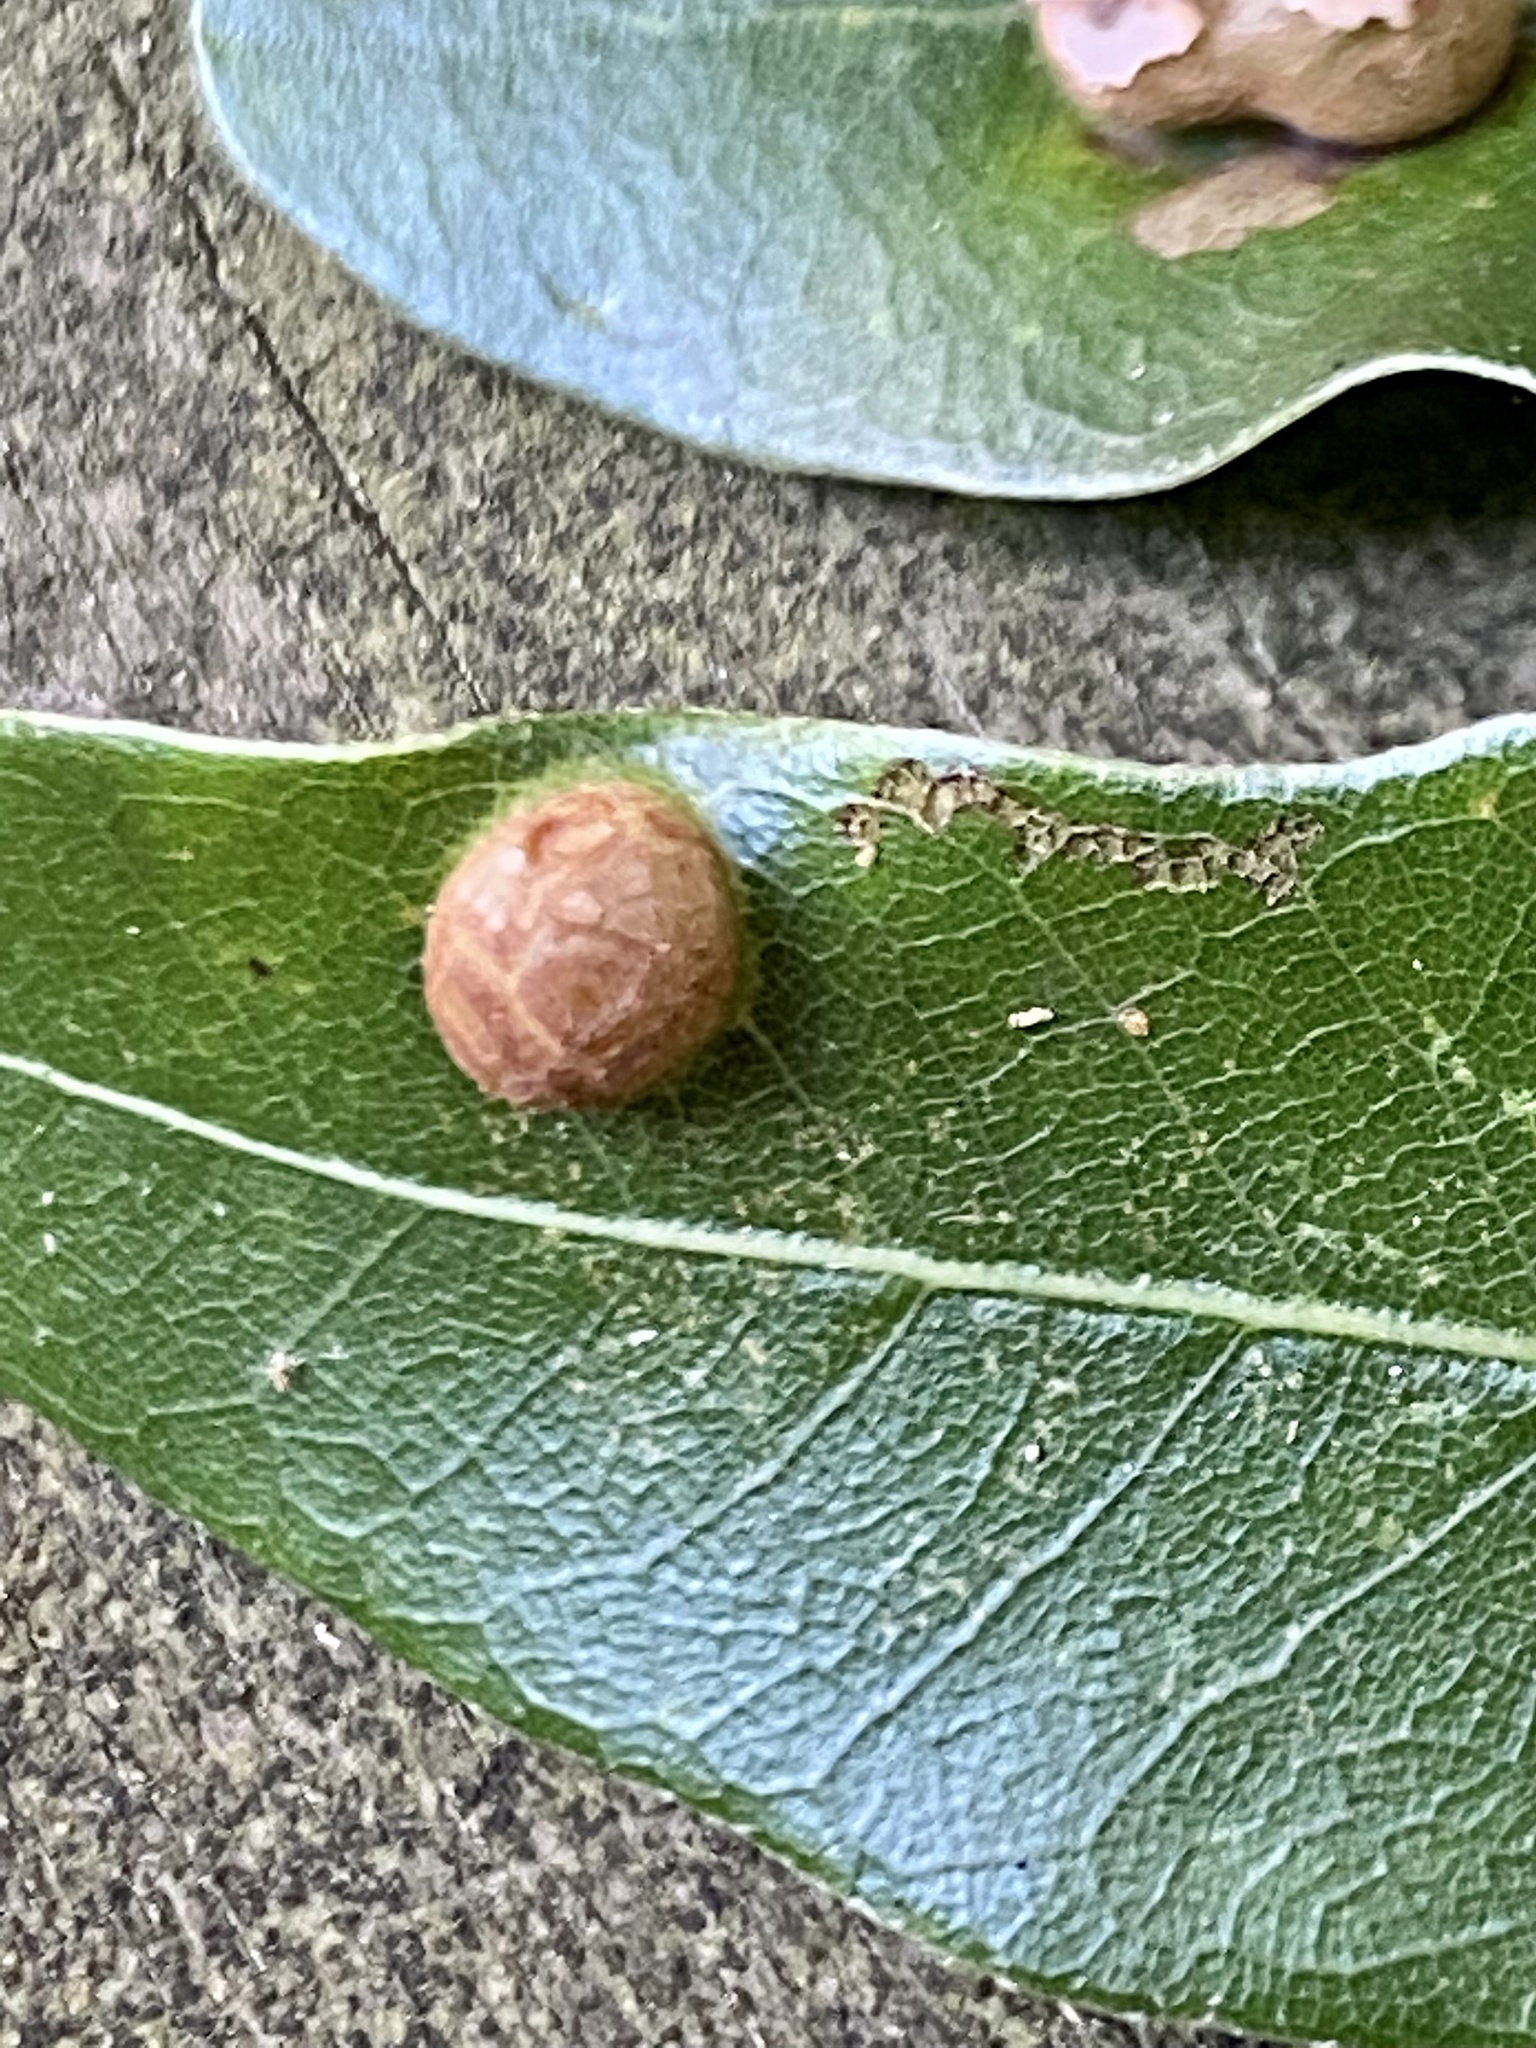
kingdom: Animalia
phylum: Arthropoda
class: Insecta
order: Diptera
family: Cecidomyiidae
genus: Polystepha
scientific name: Polystepha pilulae
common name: Oak leaf gall midge
